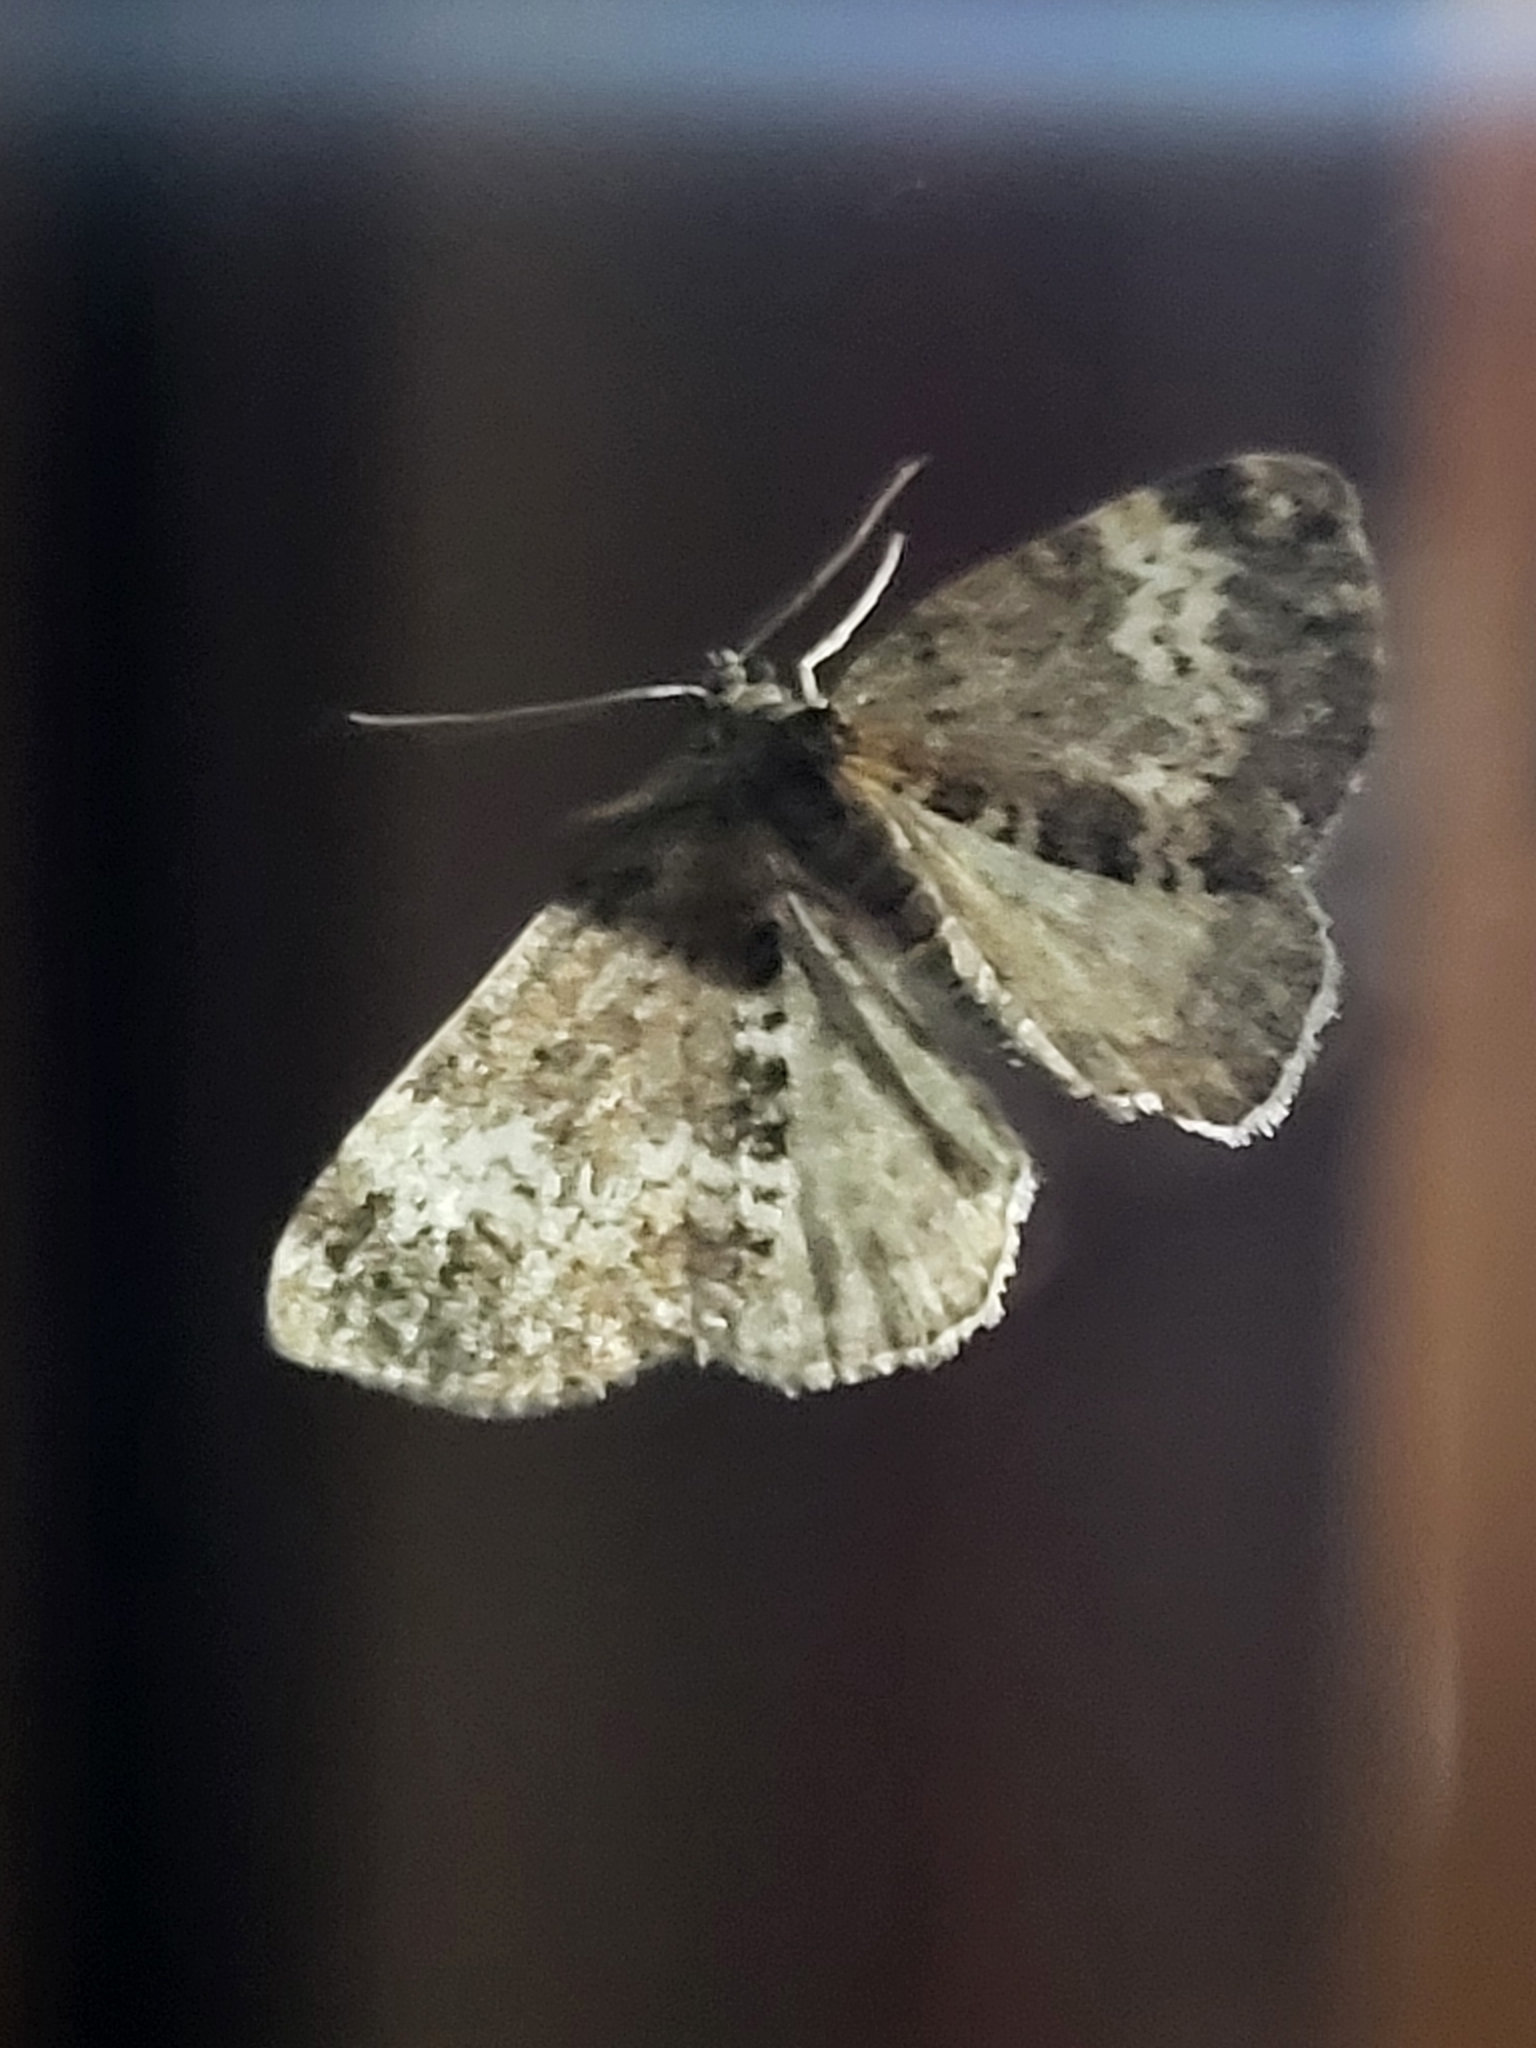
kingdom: Animalia
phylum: Arthropoda
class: Insecta
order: Lepidoptera
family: Geometridae
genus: Perizoma
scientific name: Perizoma alchemillata
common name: Small rivulet
